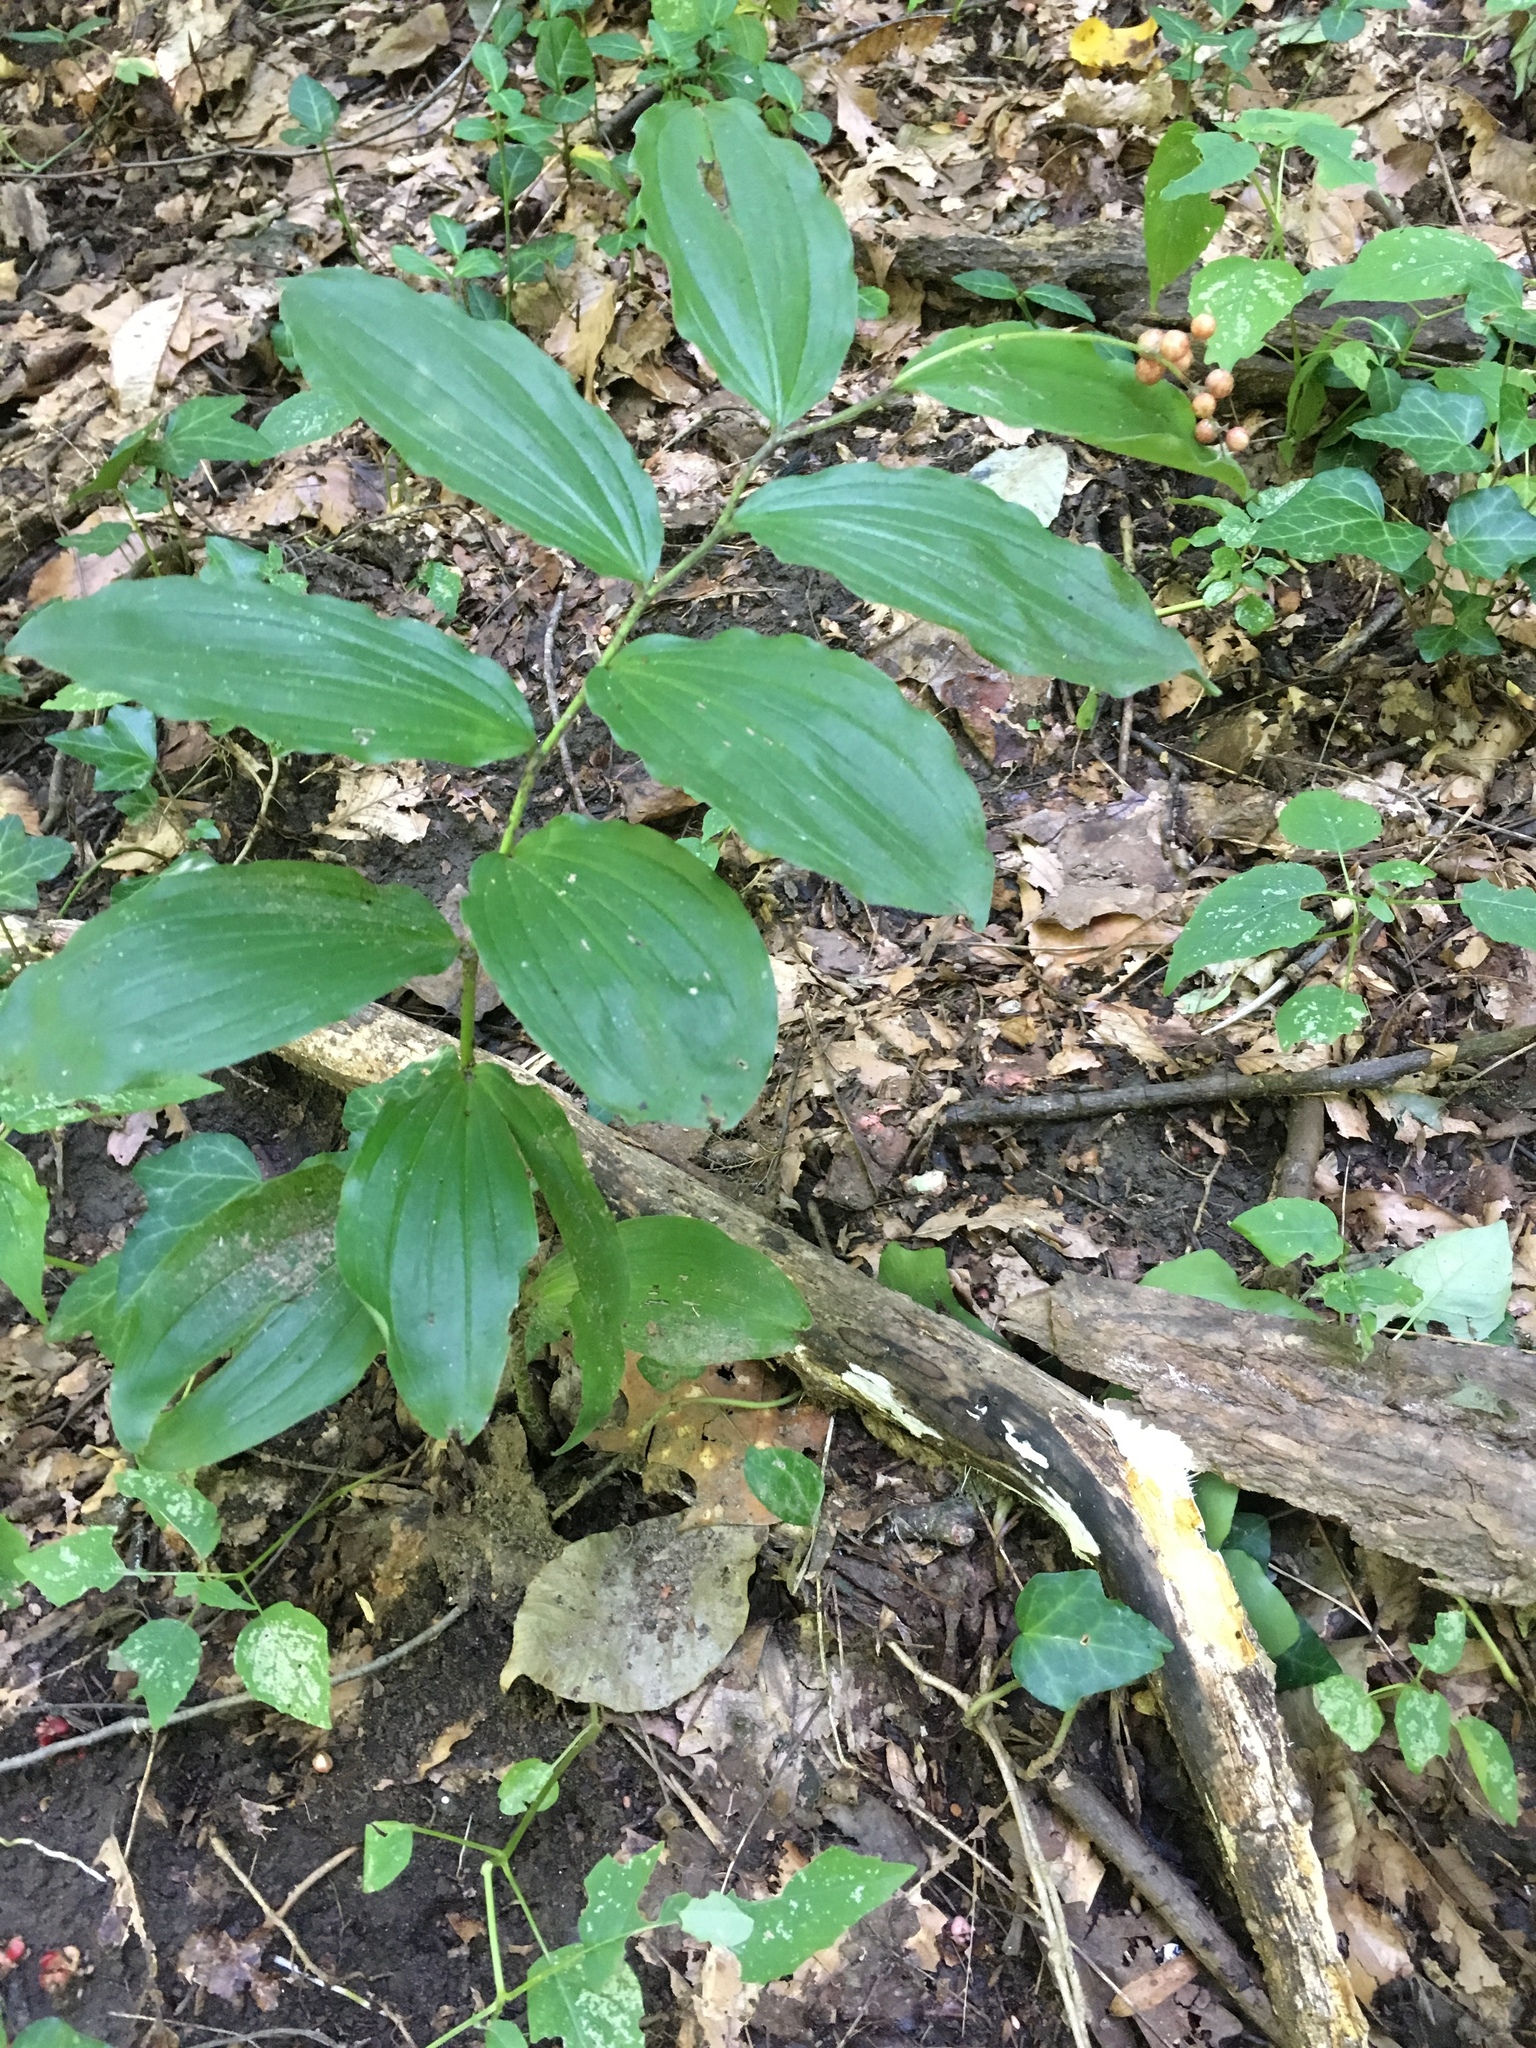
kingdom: Plantae
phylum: Tracheophyta
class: Liliopsida
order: Asparagales
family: Asparagaceae
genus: Maianthemum
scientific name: Maianthemum racemosum
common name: False spikenard
